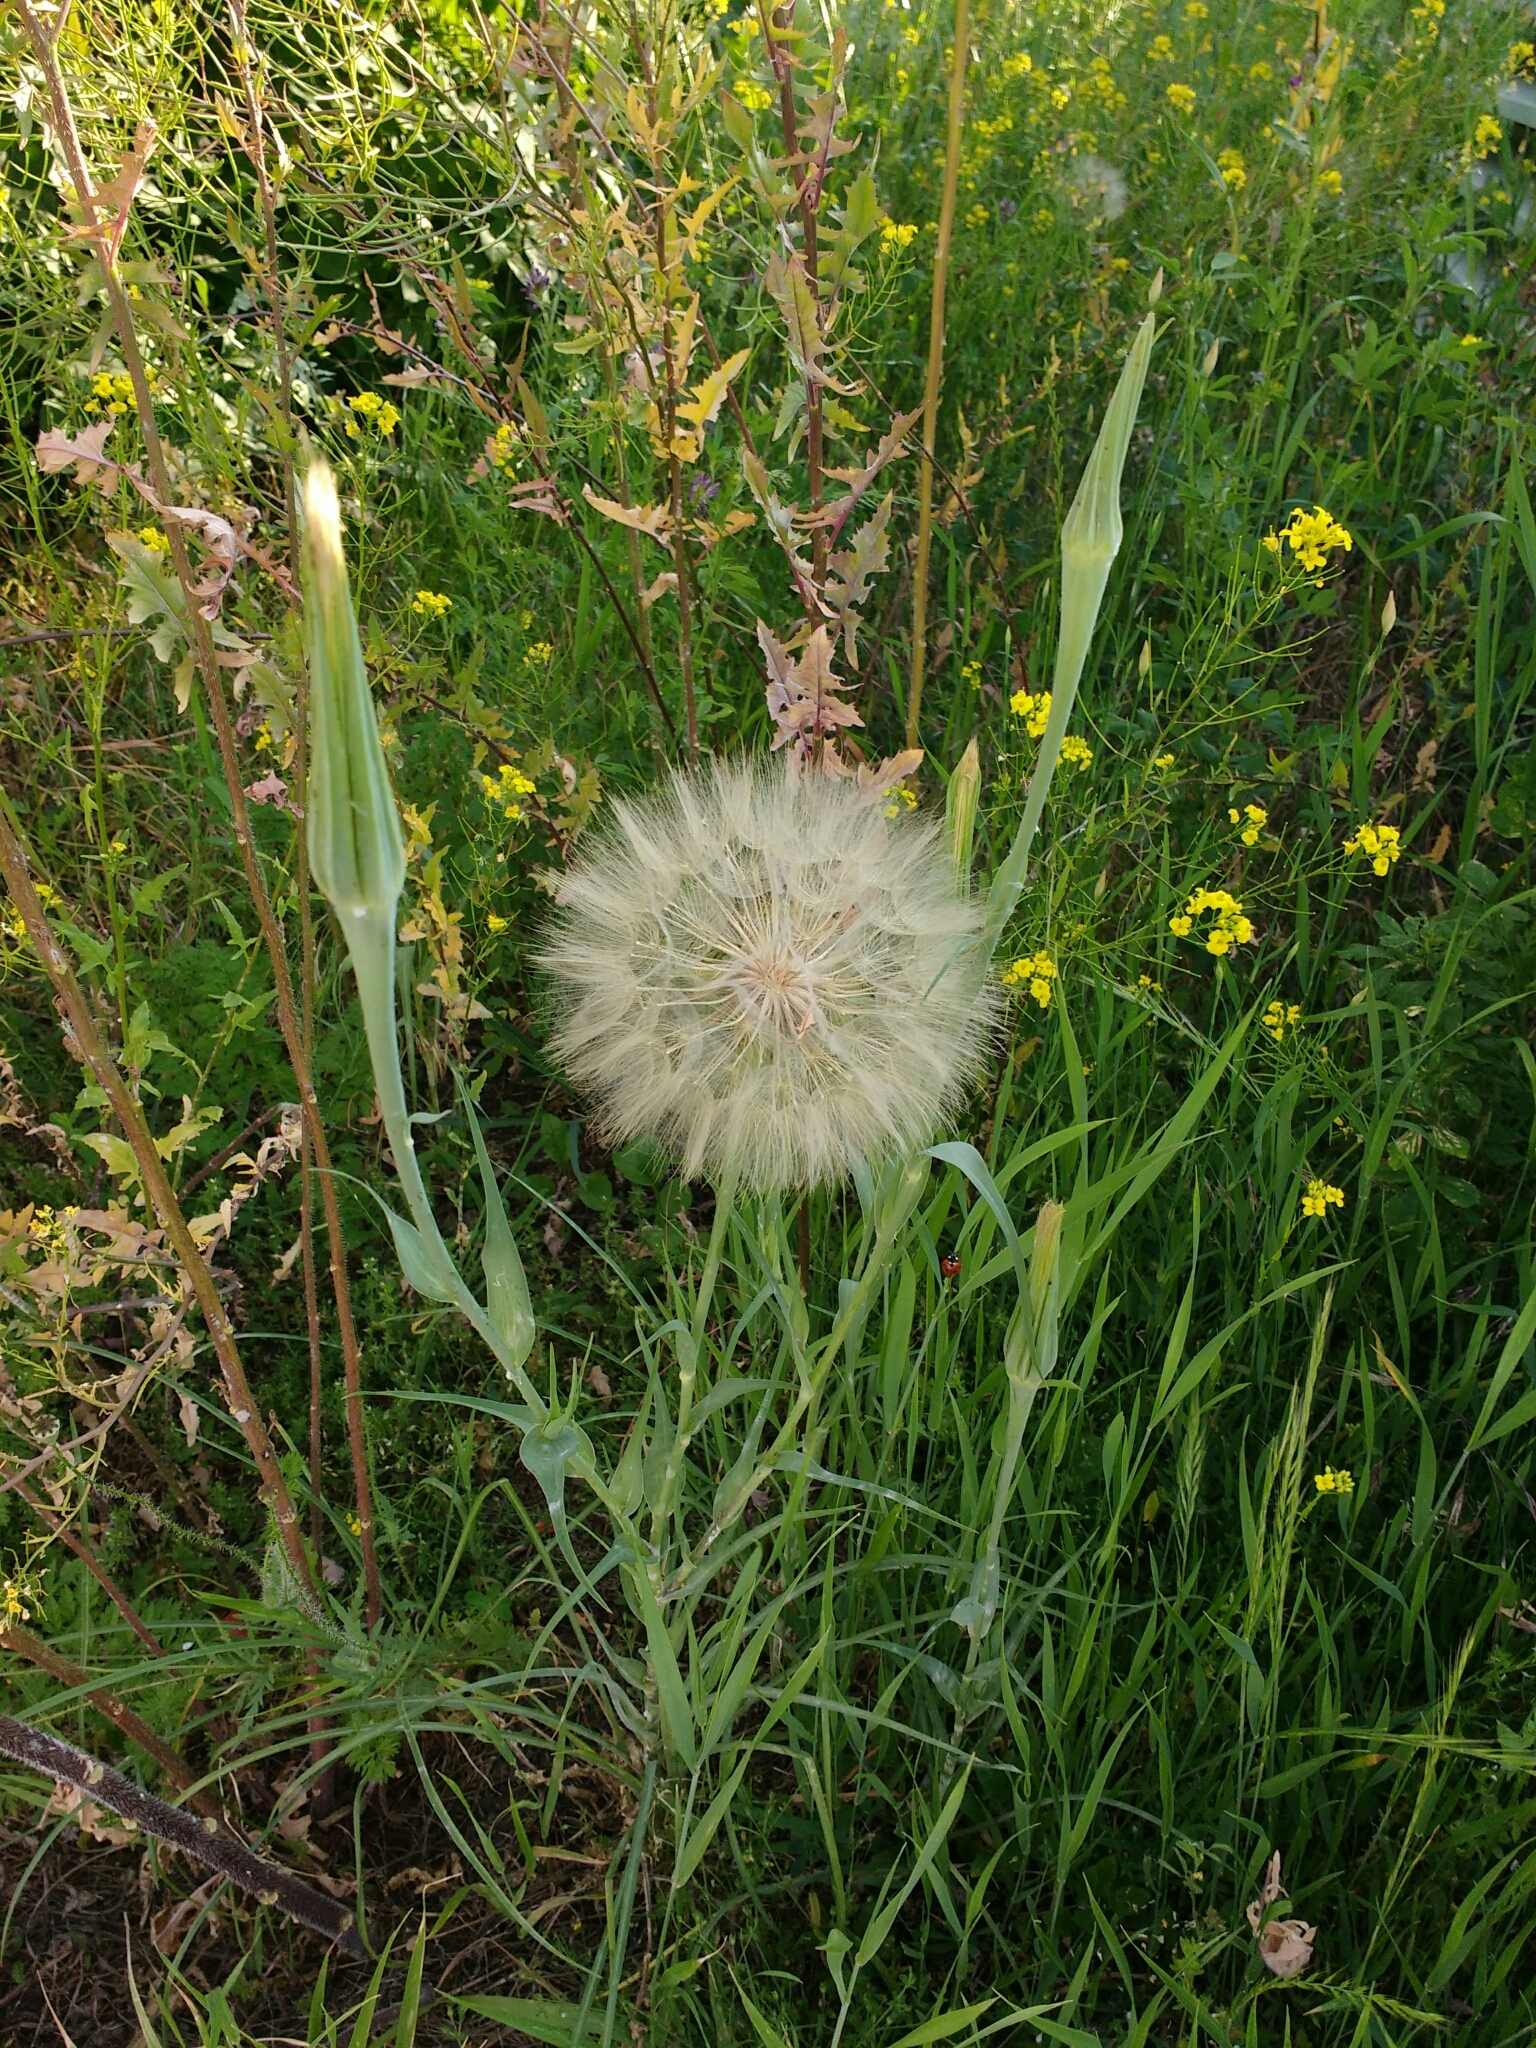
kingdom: Plantae
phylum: Tracheophyta
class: Magnoliopsida
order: Asterales
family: Asteraceae
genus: Tragopogon
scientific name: Tragopogon dubius
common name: Yellow salsify
